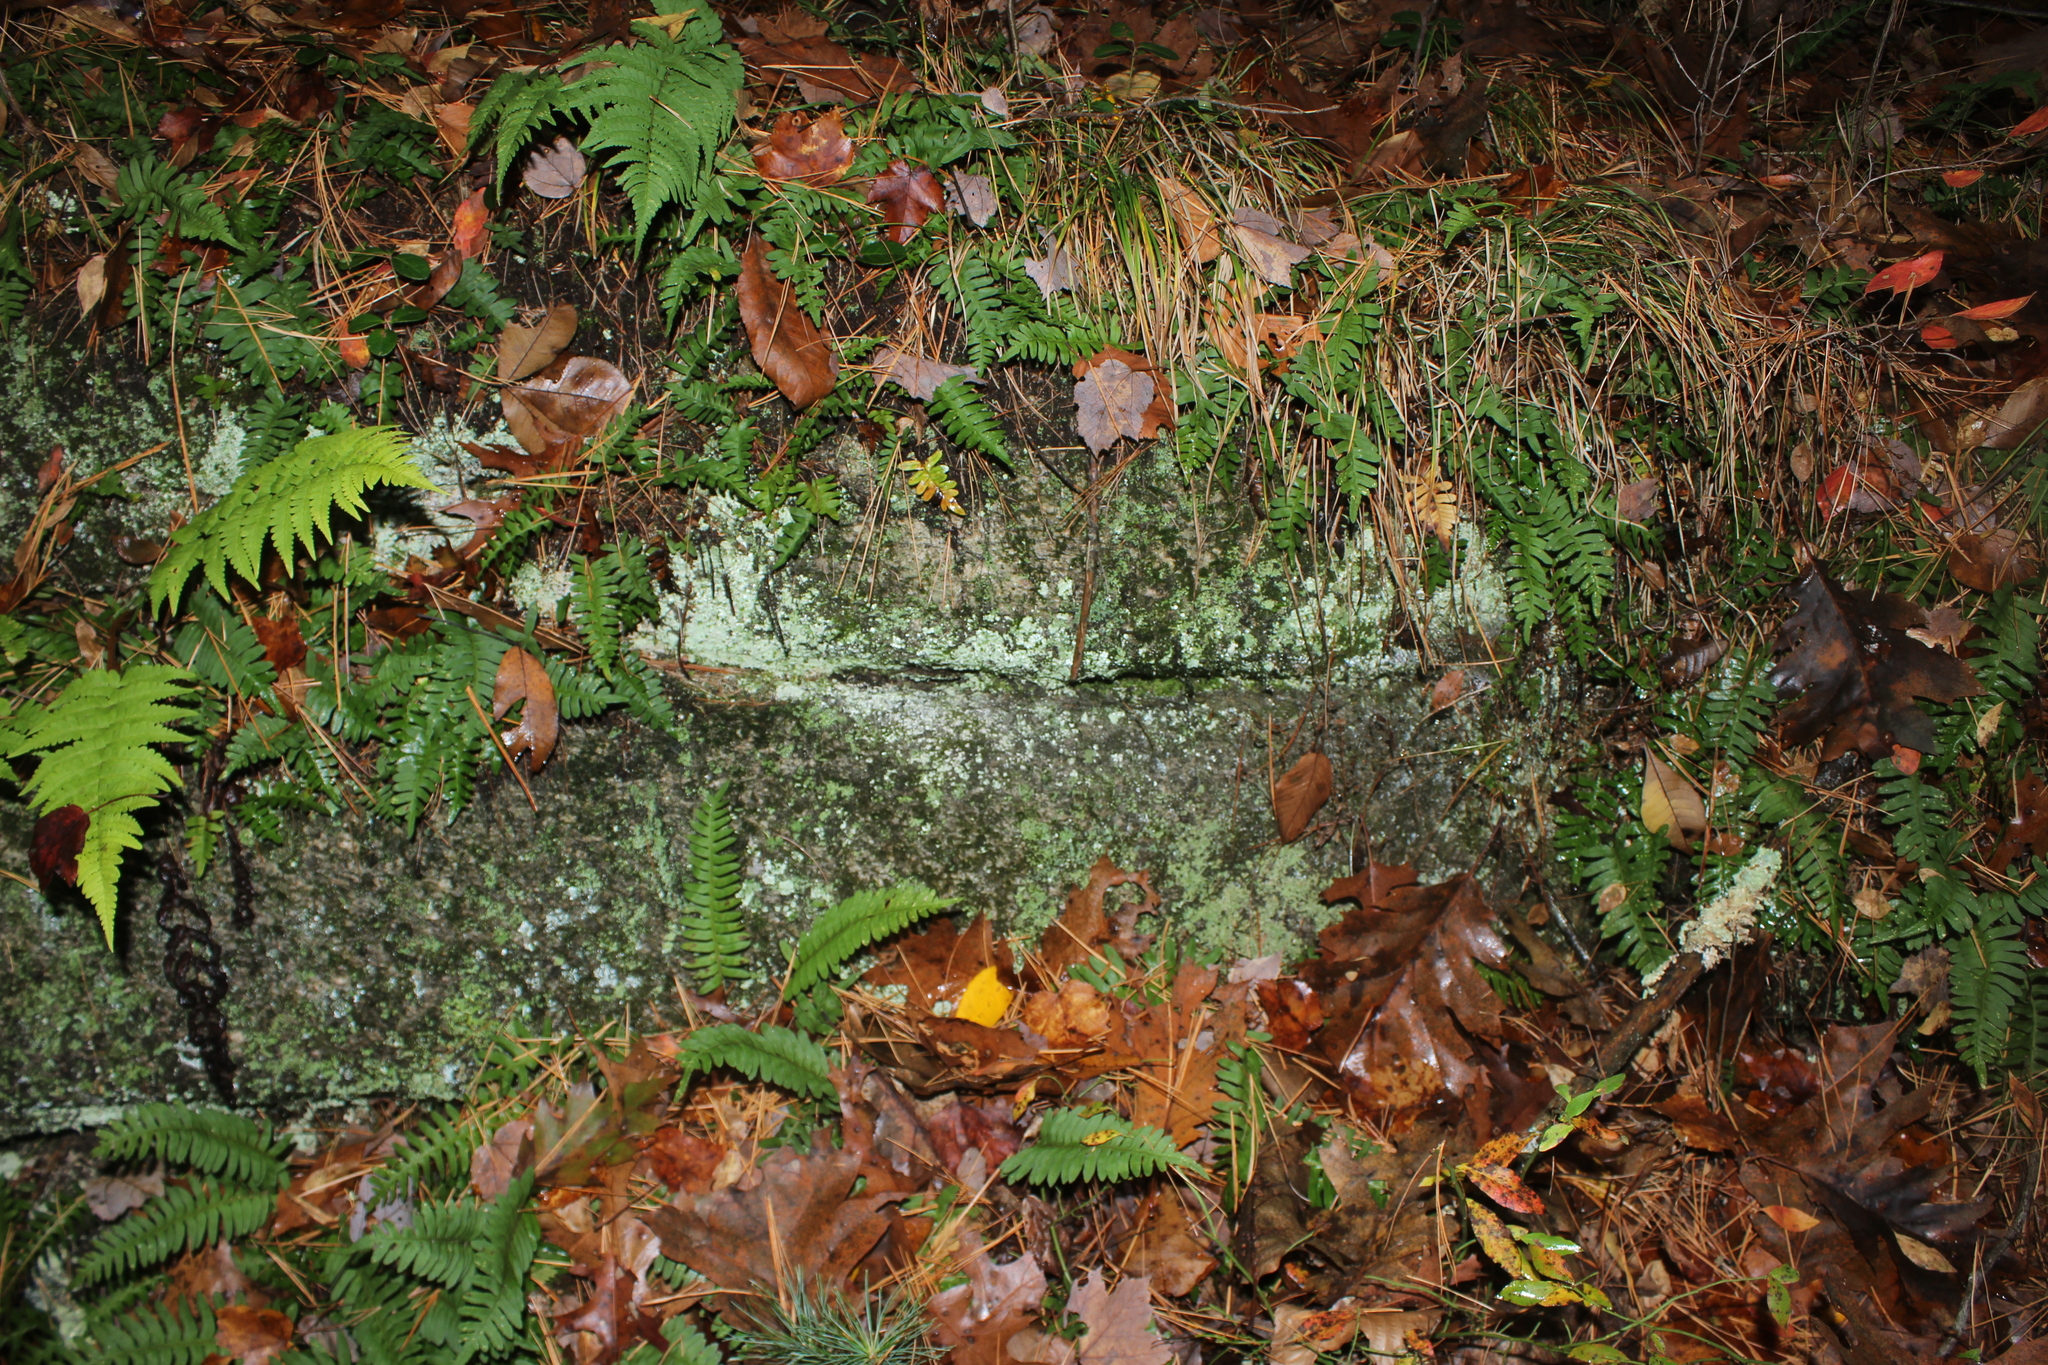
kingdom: Plantae
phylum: Tracheophyta
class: Polypodiopsida
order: Polypodiales
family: Polypodiaceae
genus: Polypodium
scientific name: Polypodium virginianum
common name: American wall fern
